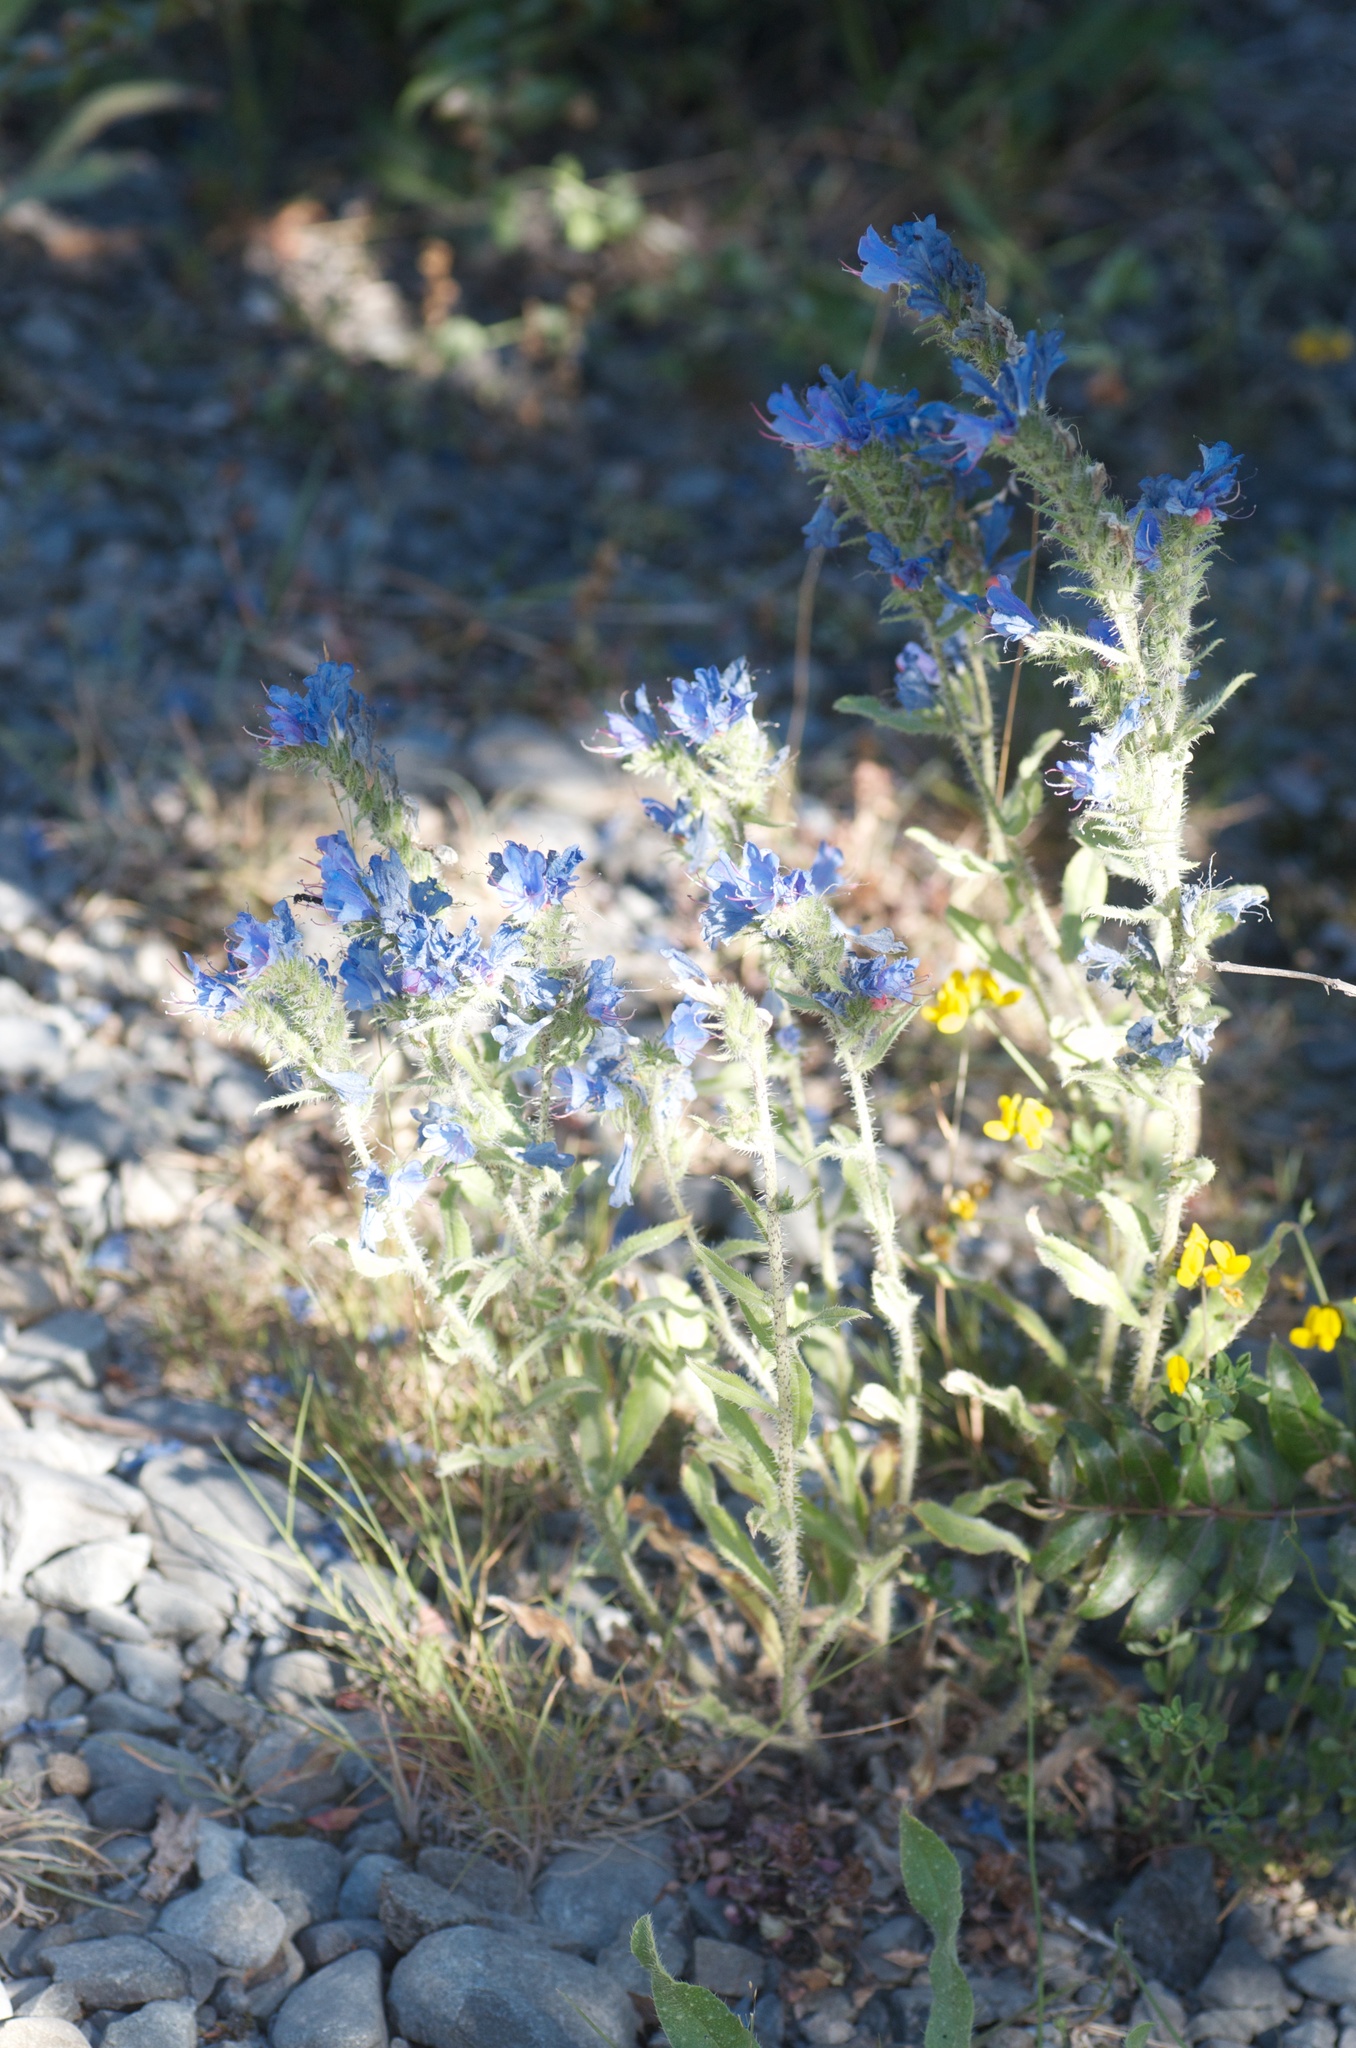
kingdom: Plantae
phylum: Tracheophyta
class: Magnoliopsida
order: Boraginales
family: Boraginaceae
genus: Echium
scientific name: Echium vulgare
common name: Common viper's bugloss
